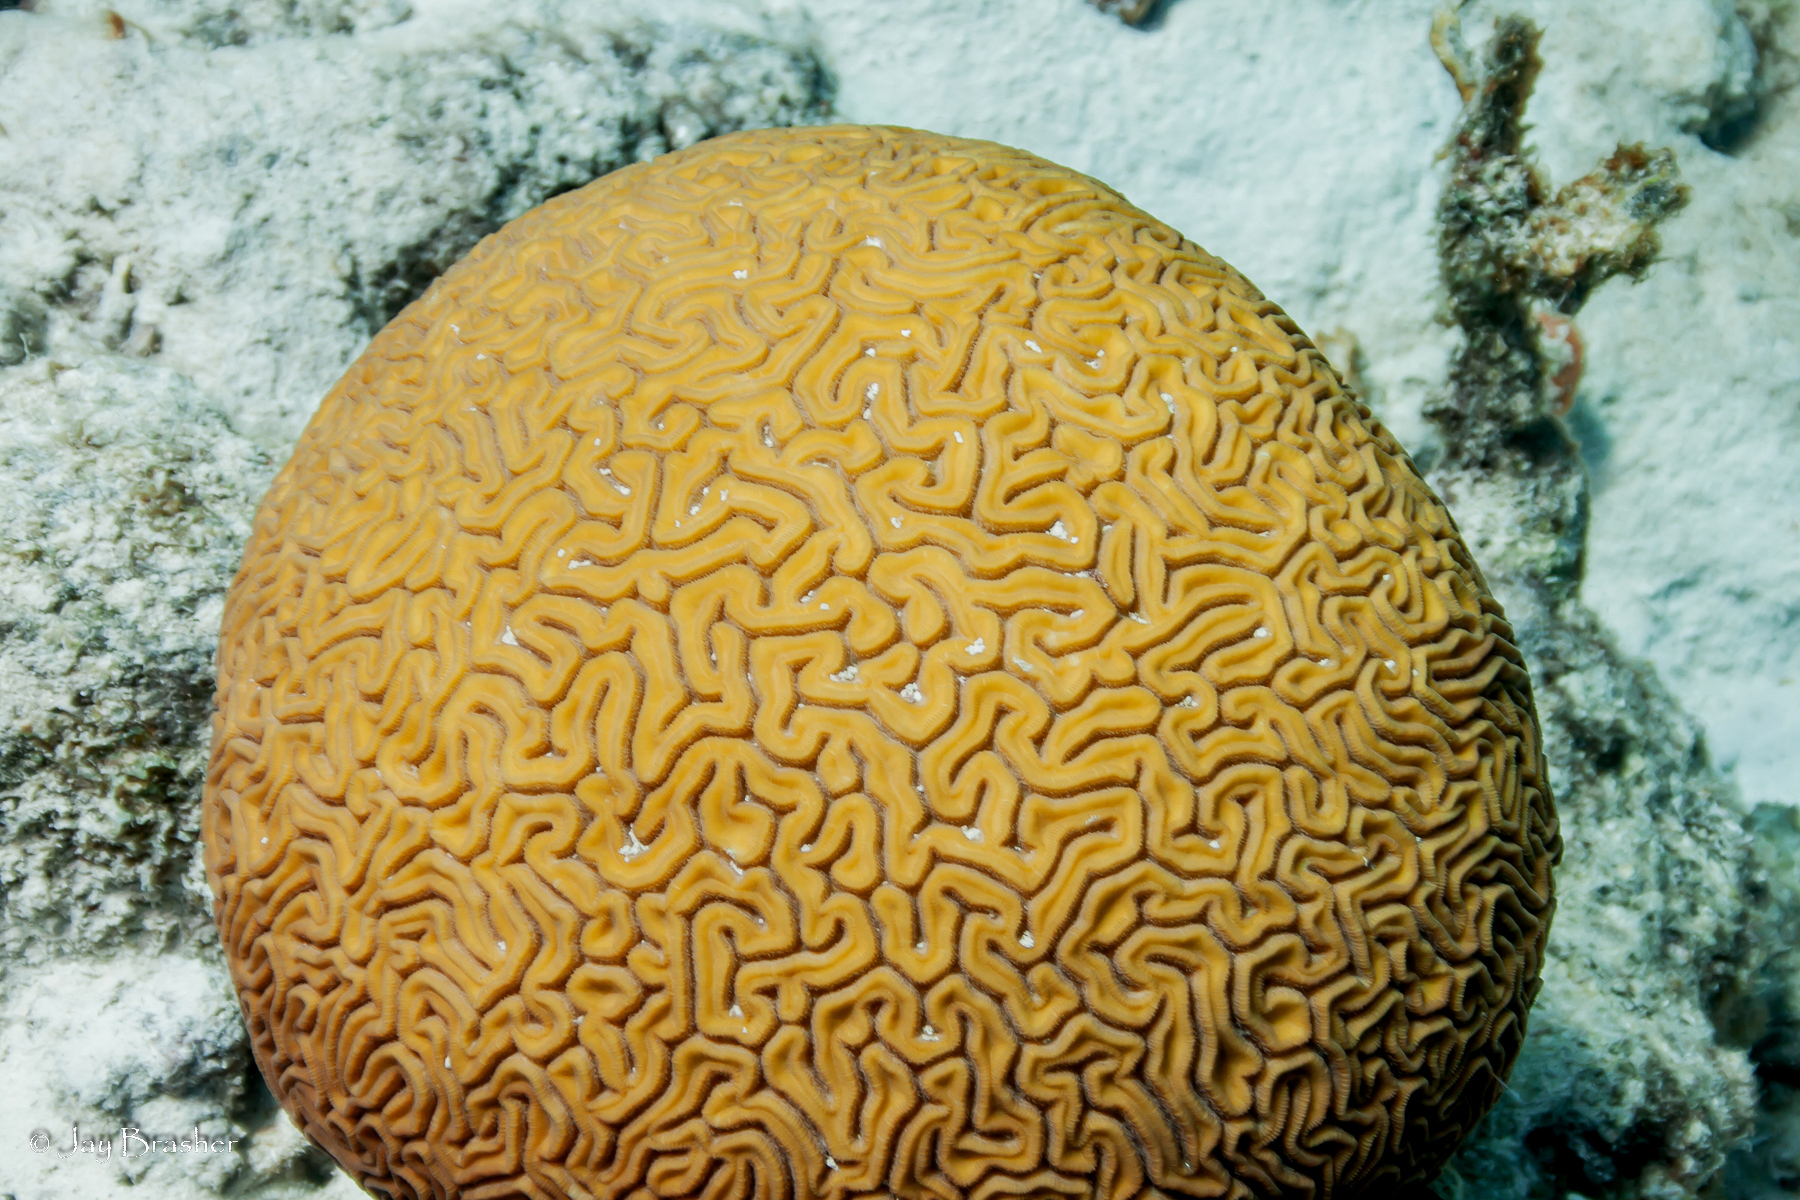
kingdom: Animalia
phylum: Cnidaria
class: Anthozoa
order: Scleractinia
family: Faviidae
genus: Diploria
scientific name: Diploria labyrinthiformis
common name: Grooved brain coral
